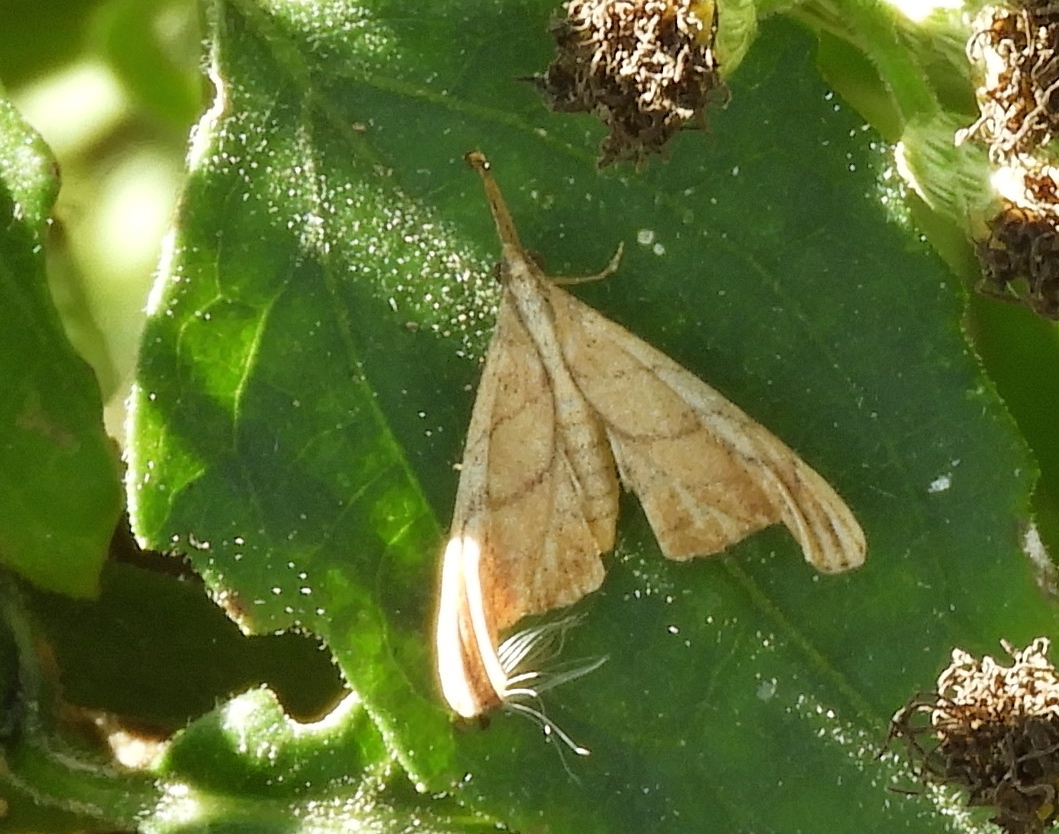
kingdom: Animalia
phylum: Arthropoda
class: Insecta
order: Lepidoptera
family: Erebidae
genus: Palthis
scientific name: Palthis
